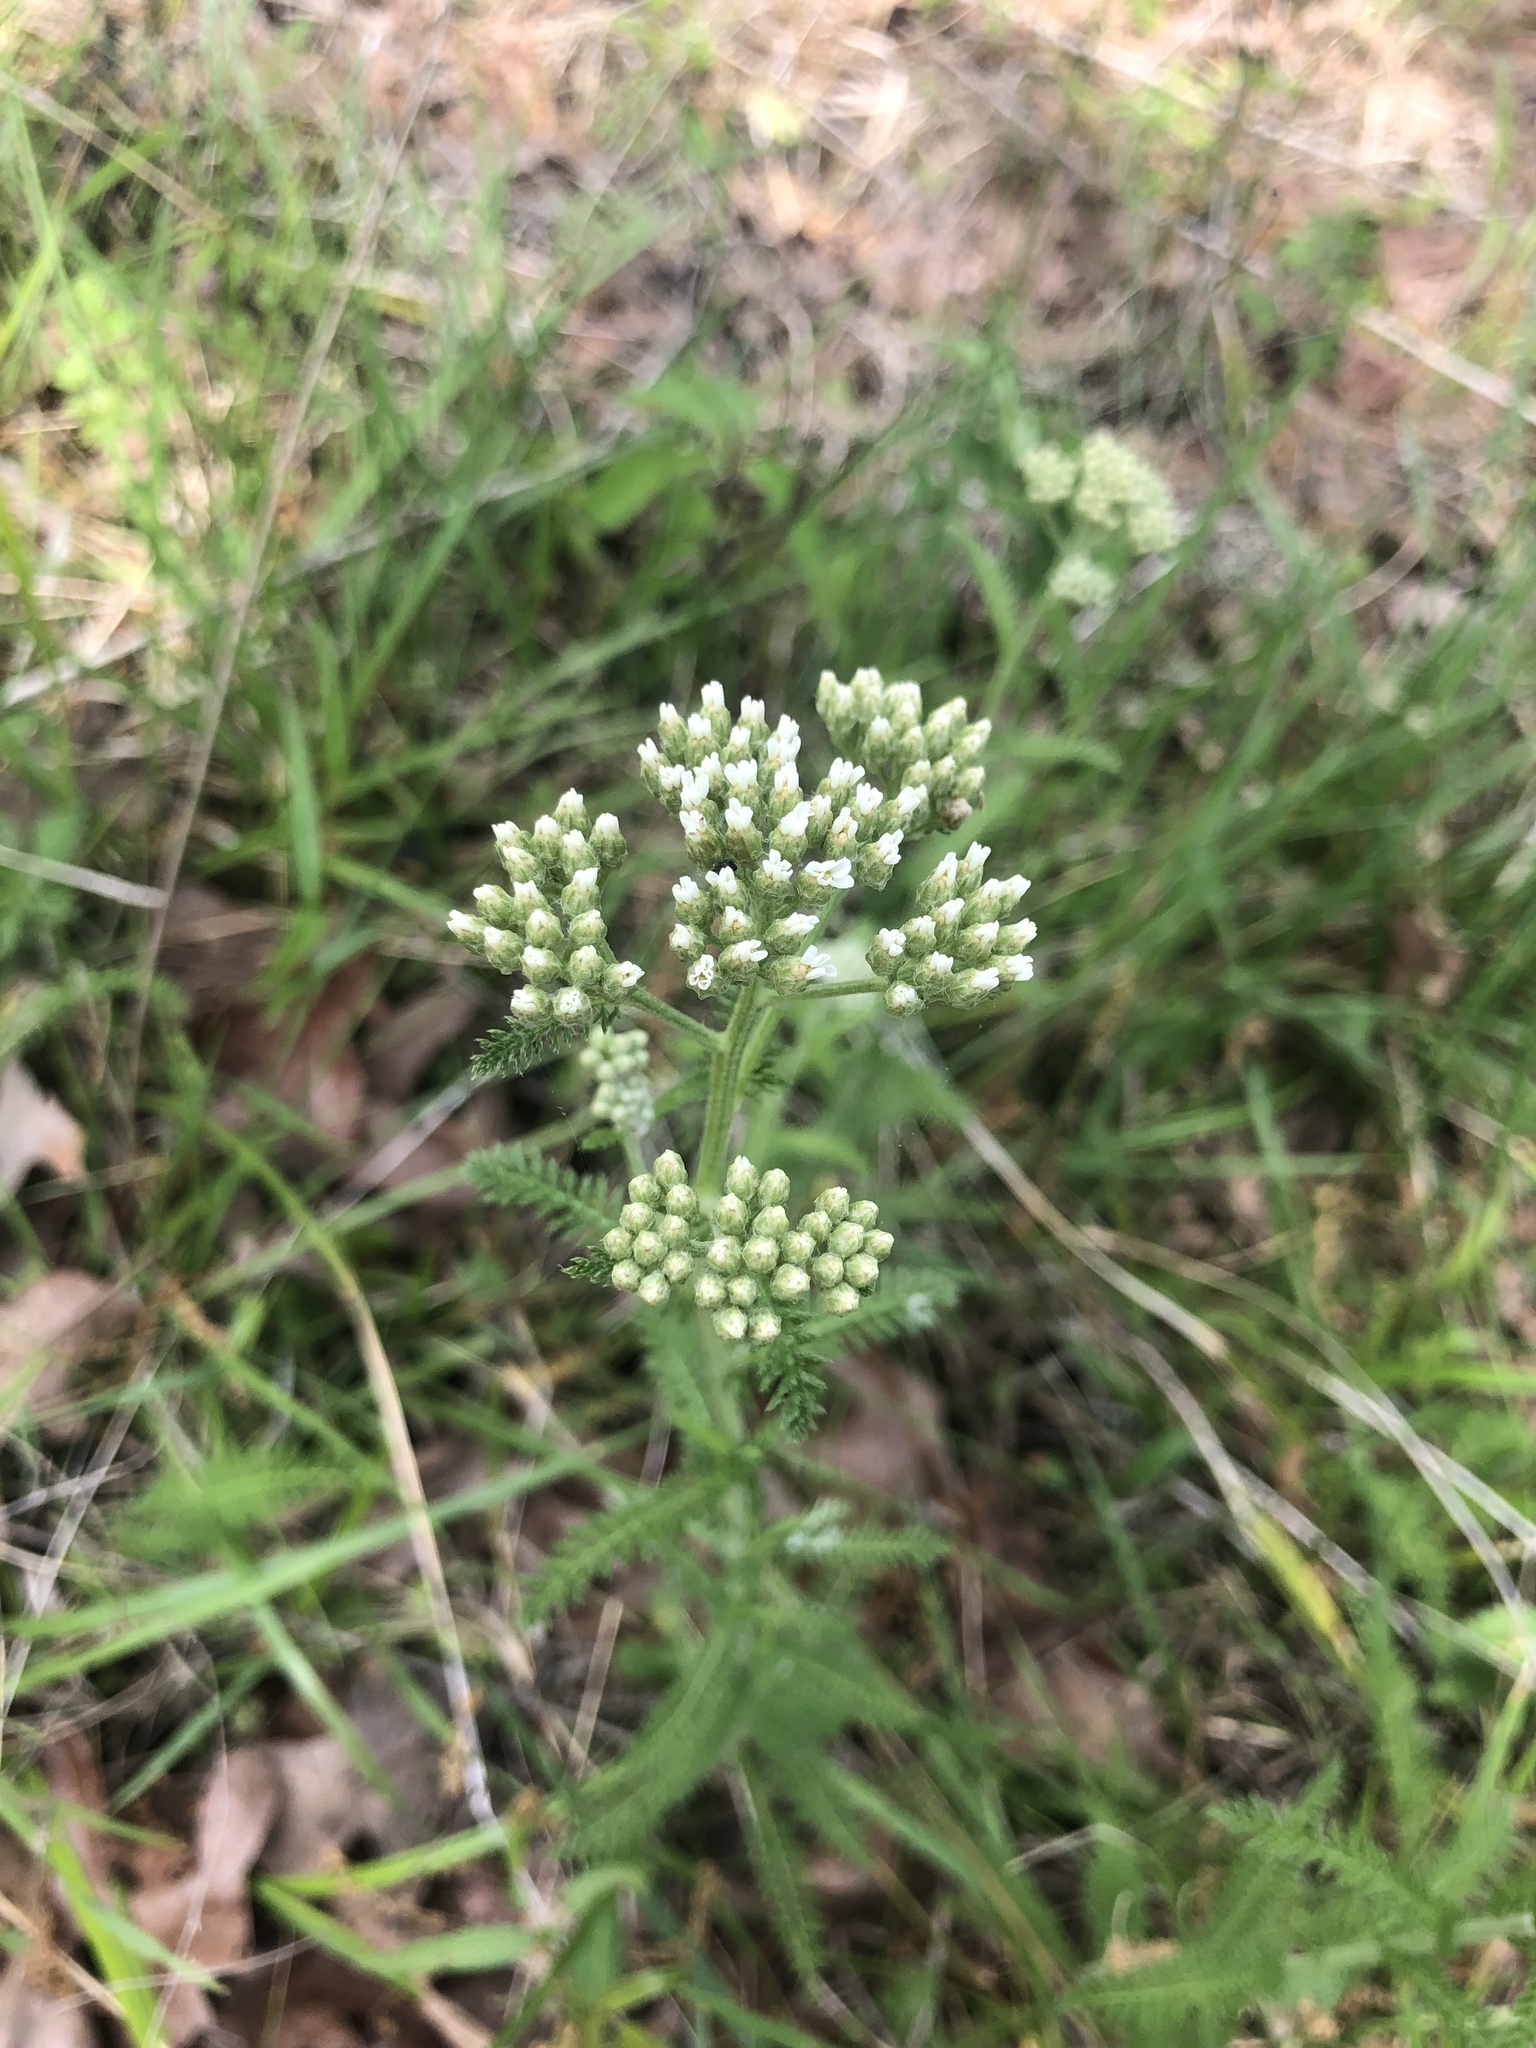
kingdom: Plantae
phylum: Tracheophyta
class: Magnoliopsida
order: Asterales
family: Asteraceae
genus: Achillea
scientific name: Achillea millefolium
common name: Yarrow
